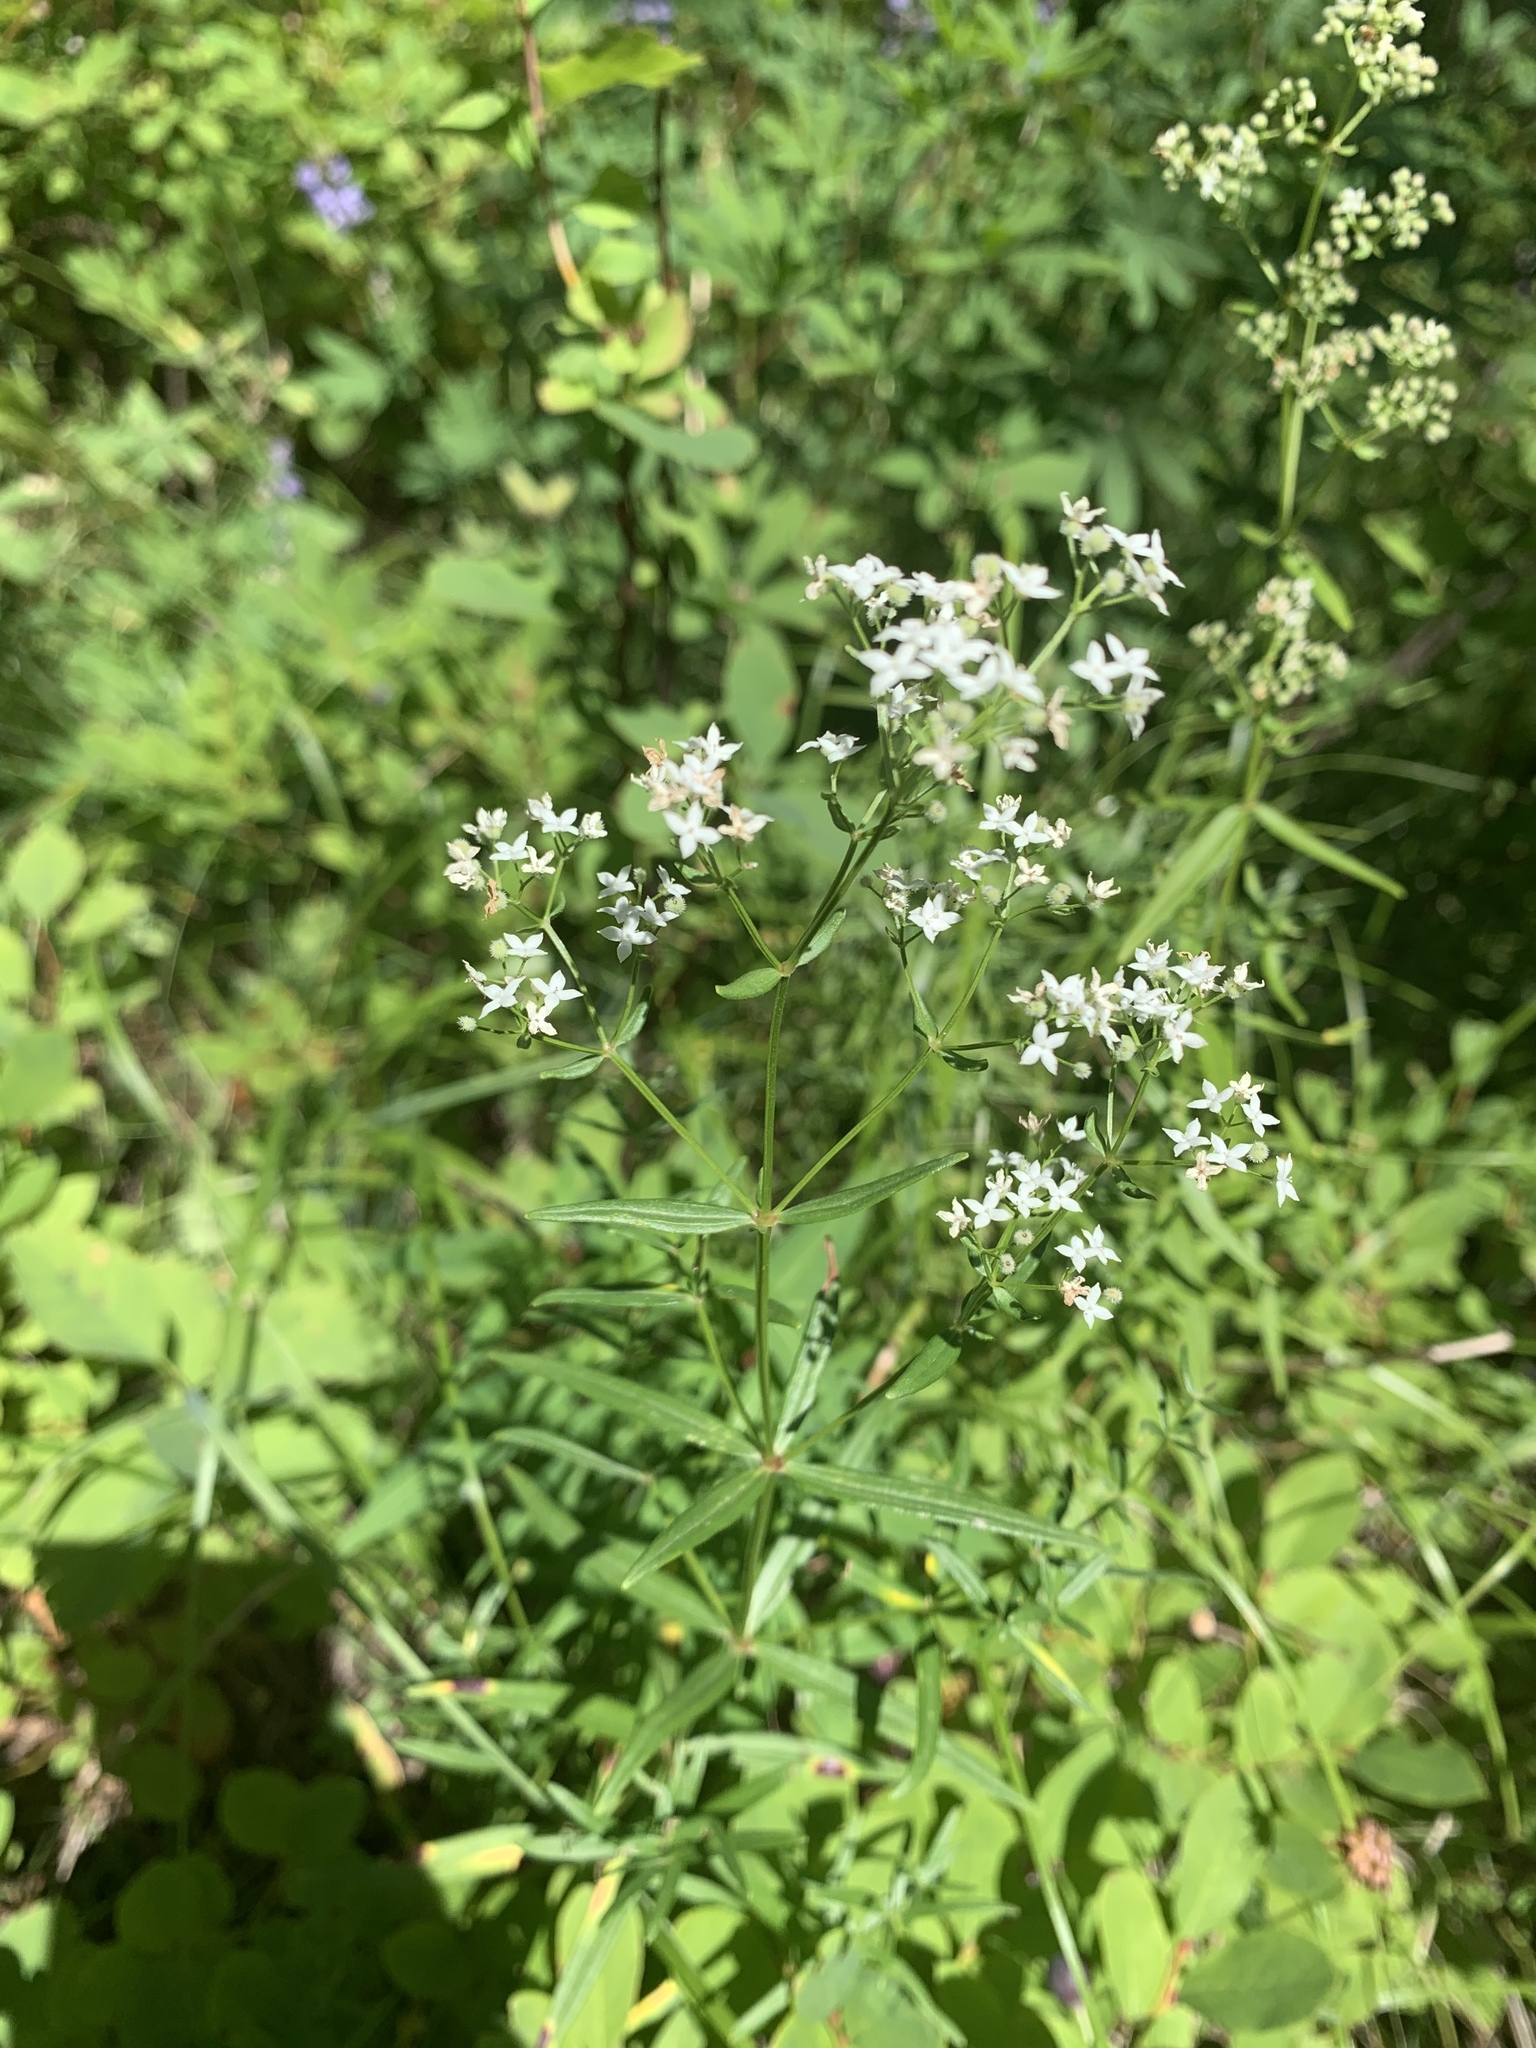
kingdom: Plantae
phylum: Tracheophyta
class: Magnoliopsida
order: Gentianales
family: Rubiaceae
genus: Galium
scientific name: Galium boreale
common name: Northern bedstraw
